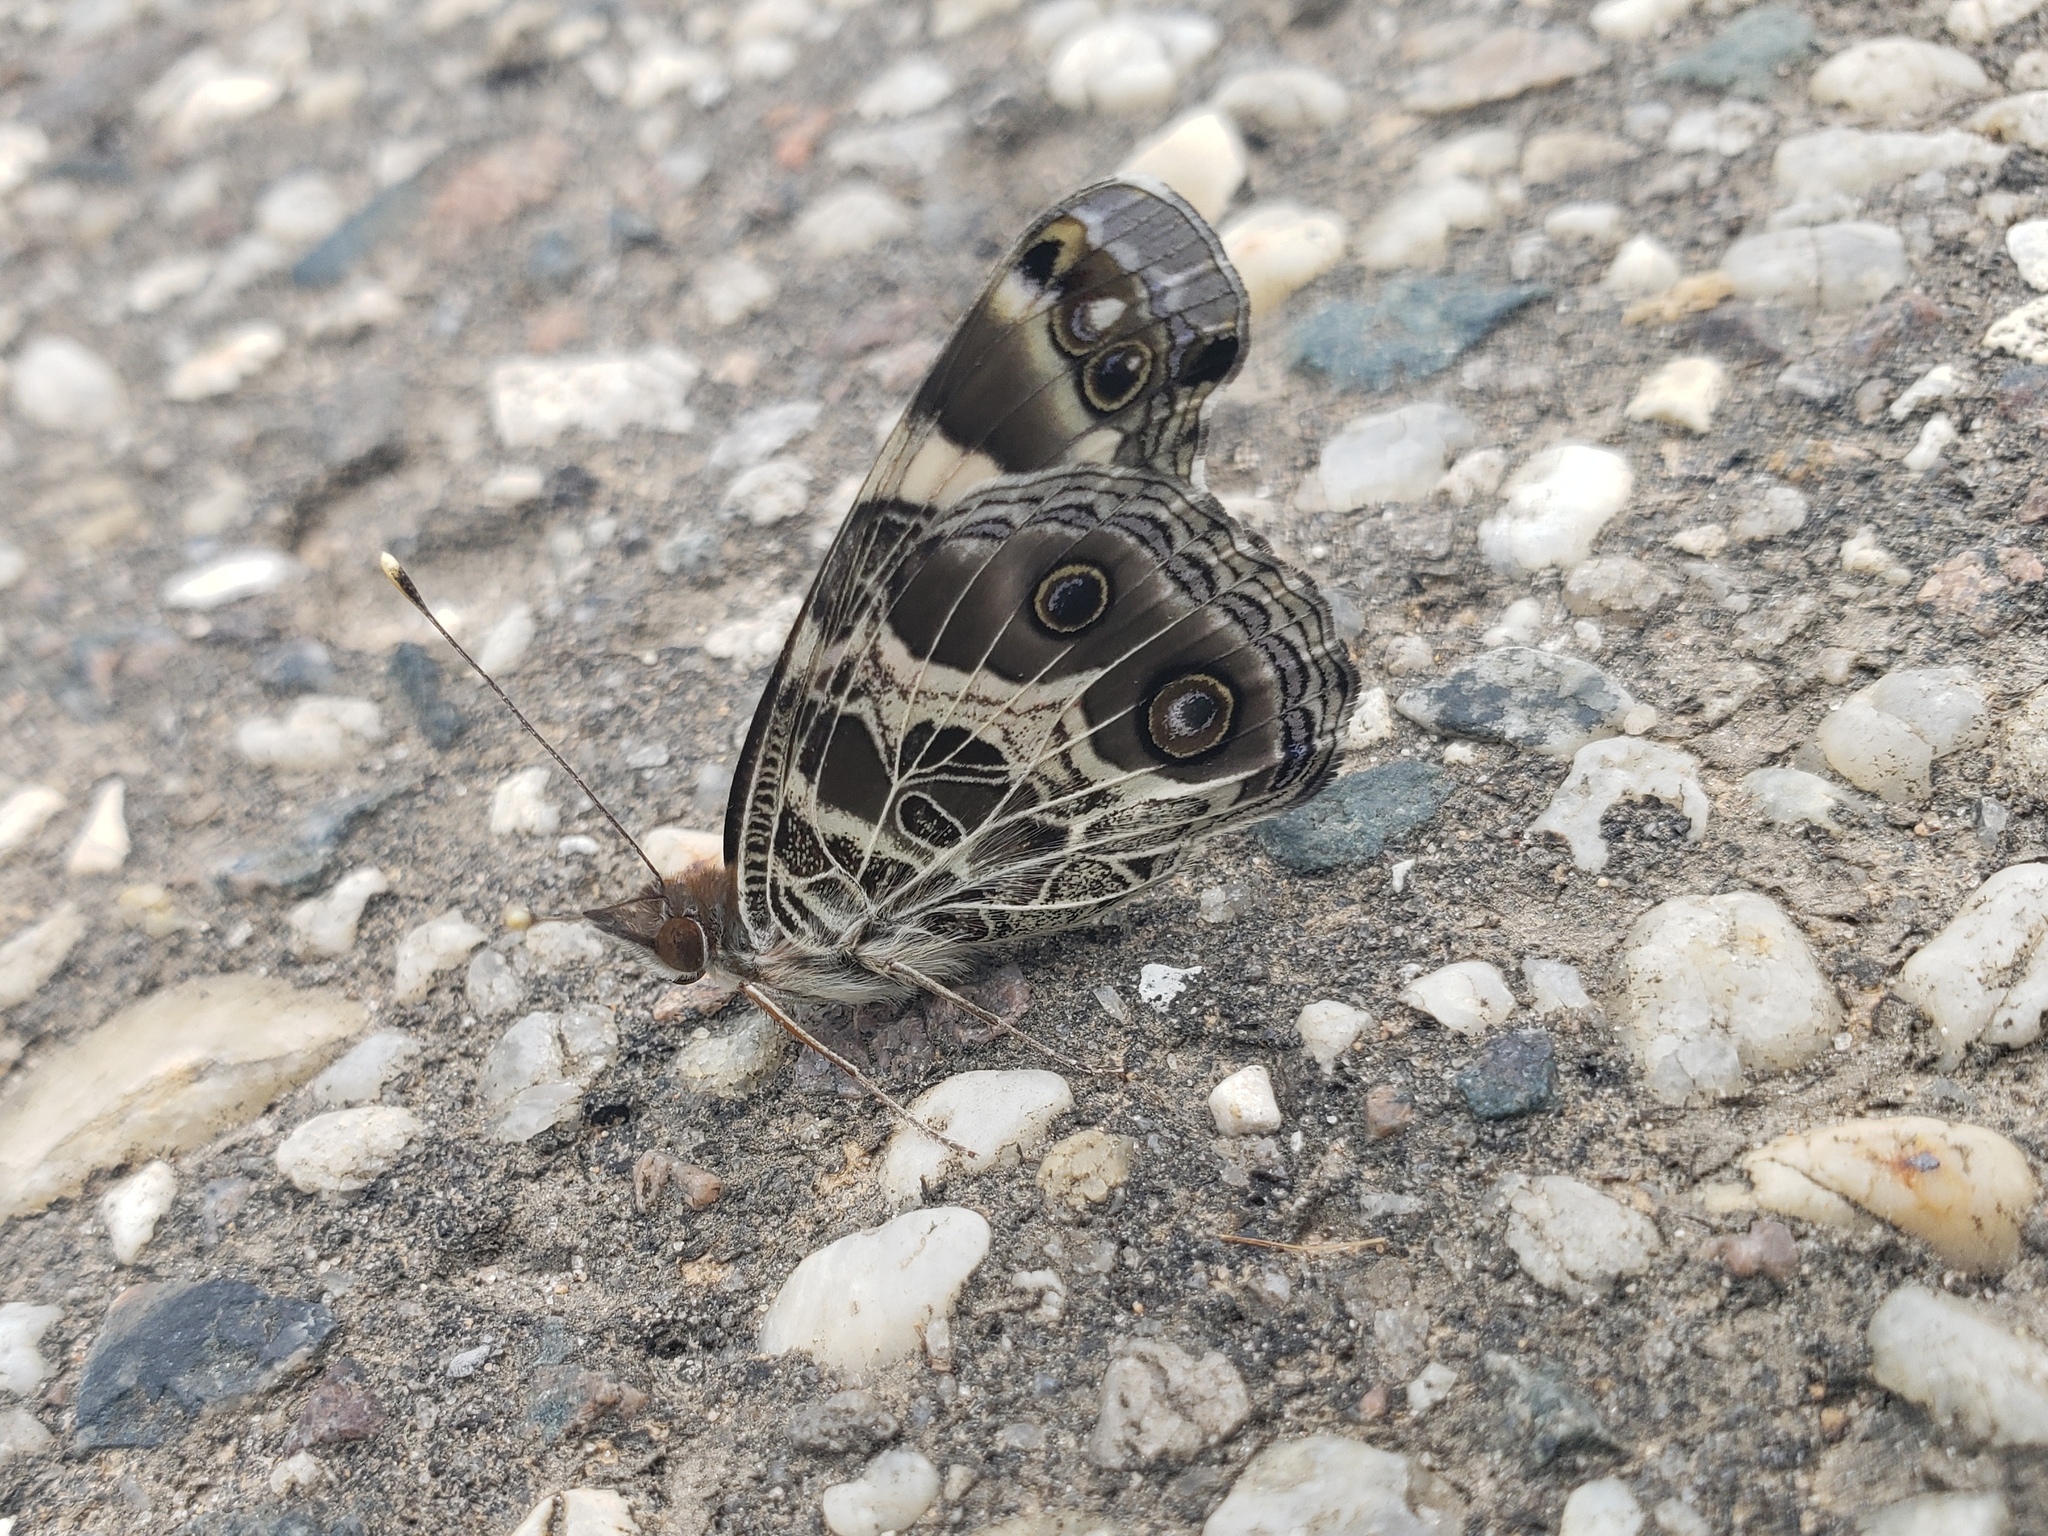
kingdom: Animalia
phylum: Arthropoda
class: Insecta
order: Lepidoptera
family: Nymphalidae
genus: Vanessa
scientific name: Vanessa virginiensis
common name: American lady
